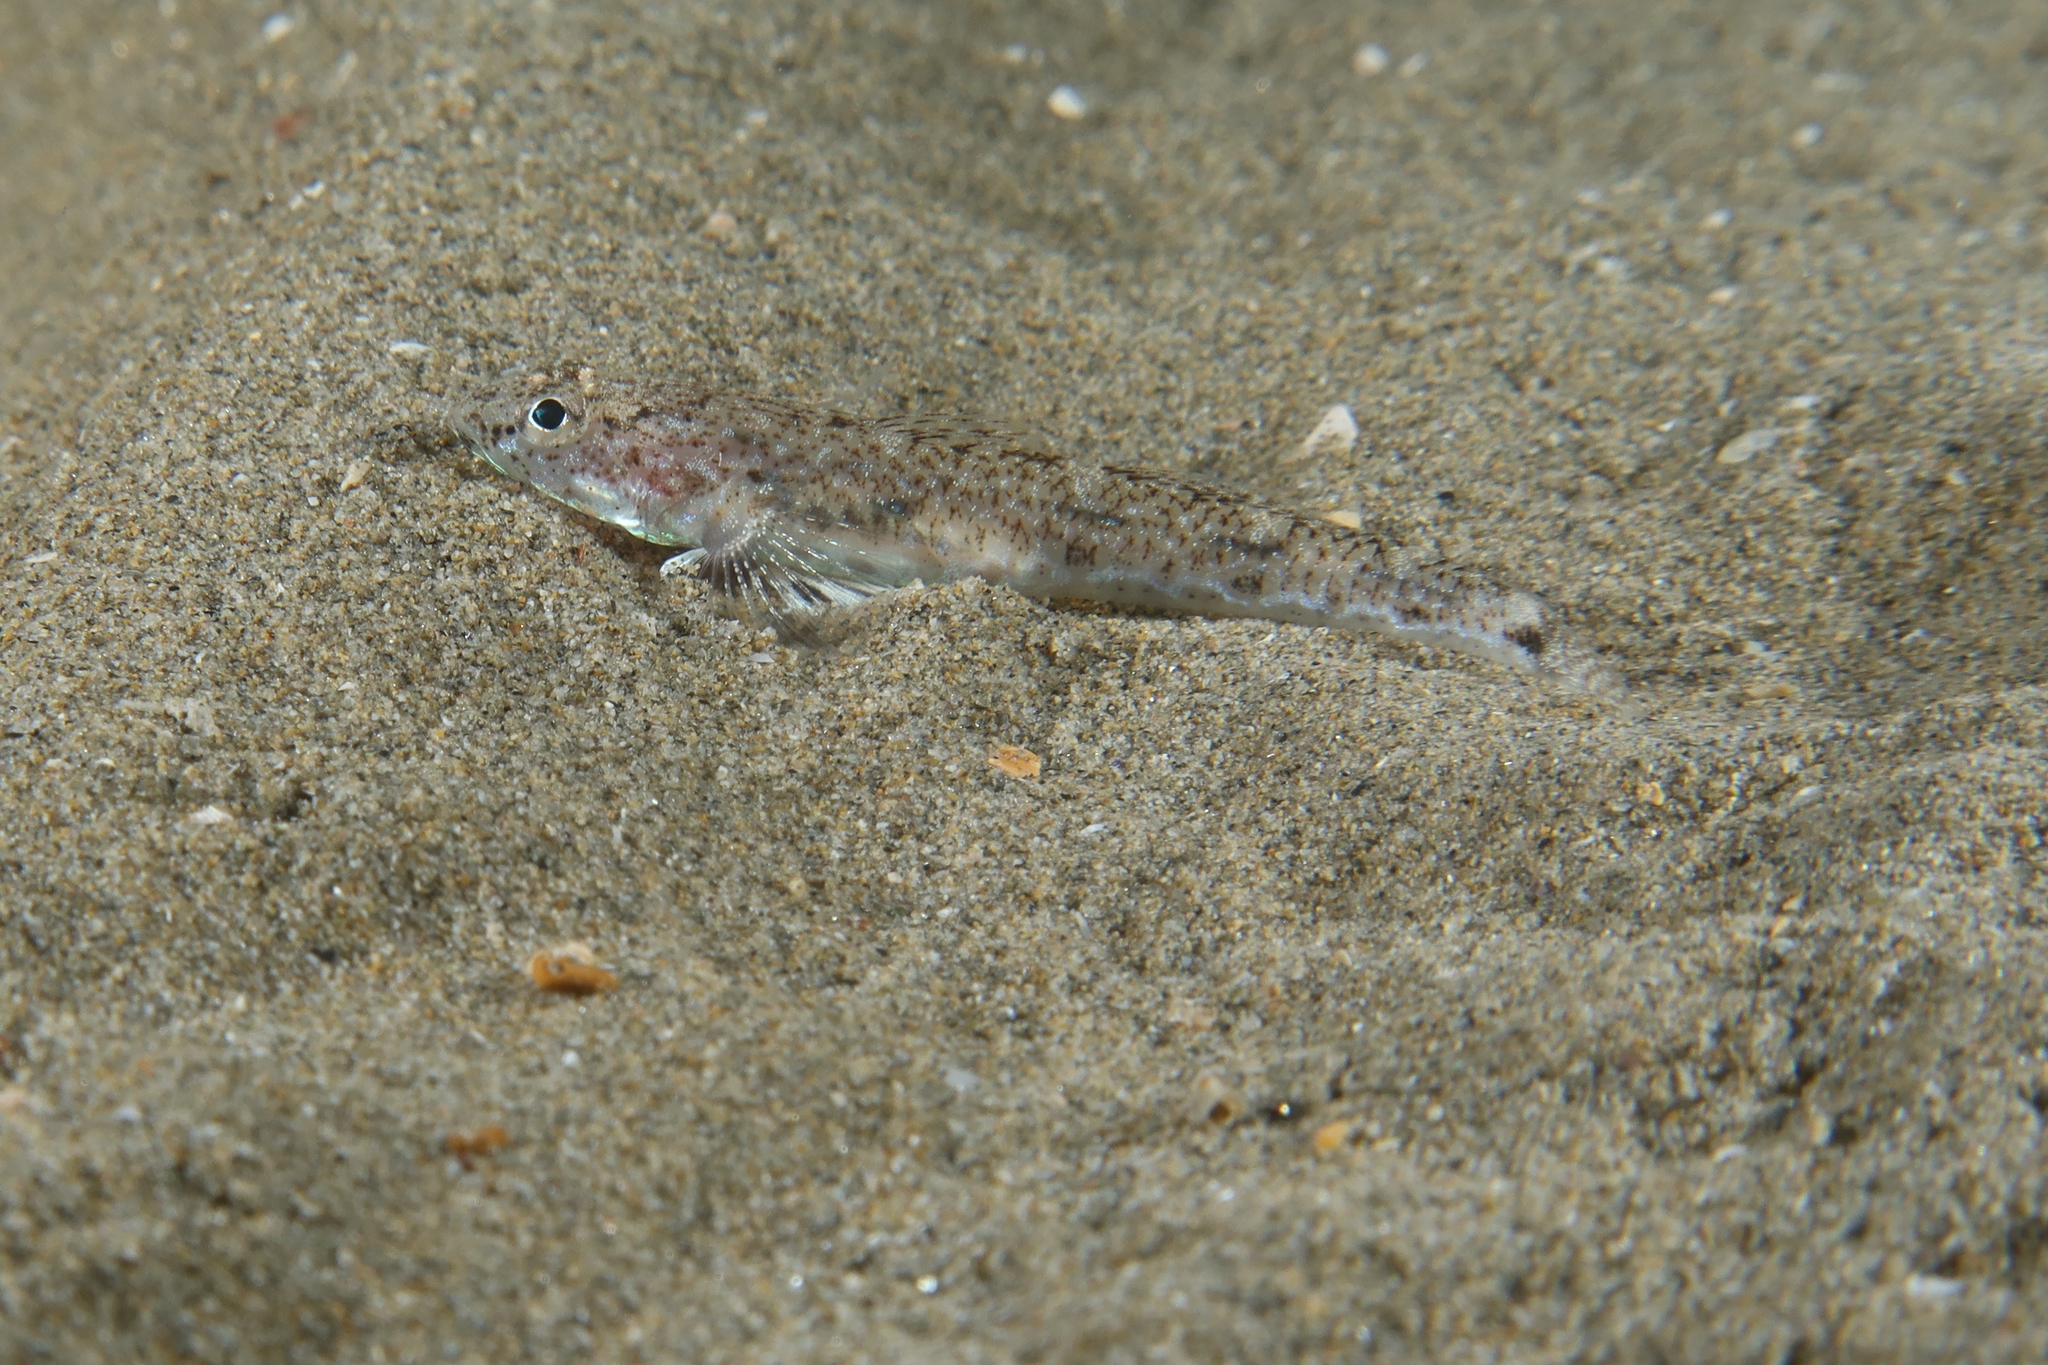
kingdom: Animalia
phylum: Chordata
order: Perciformes
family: Gobiidae
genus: Pomatoschistus
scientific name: Pomatoschistus marmoratus
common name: Marbled goby
